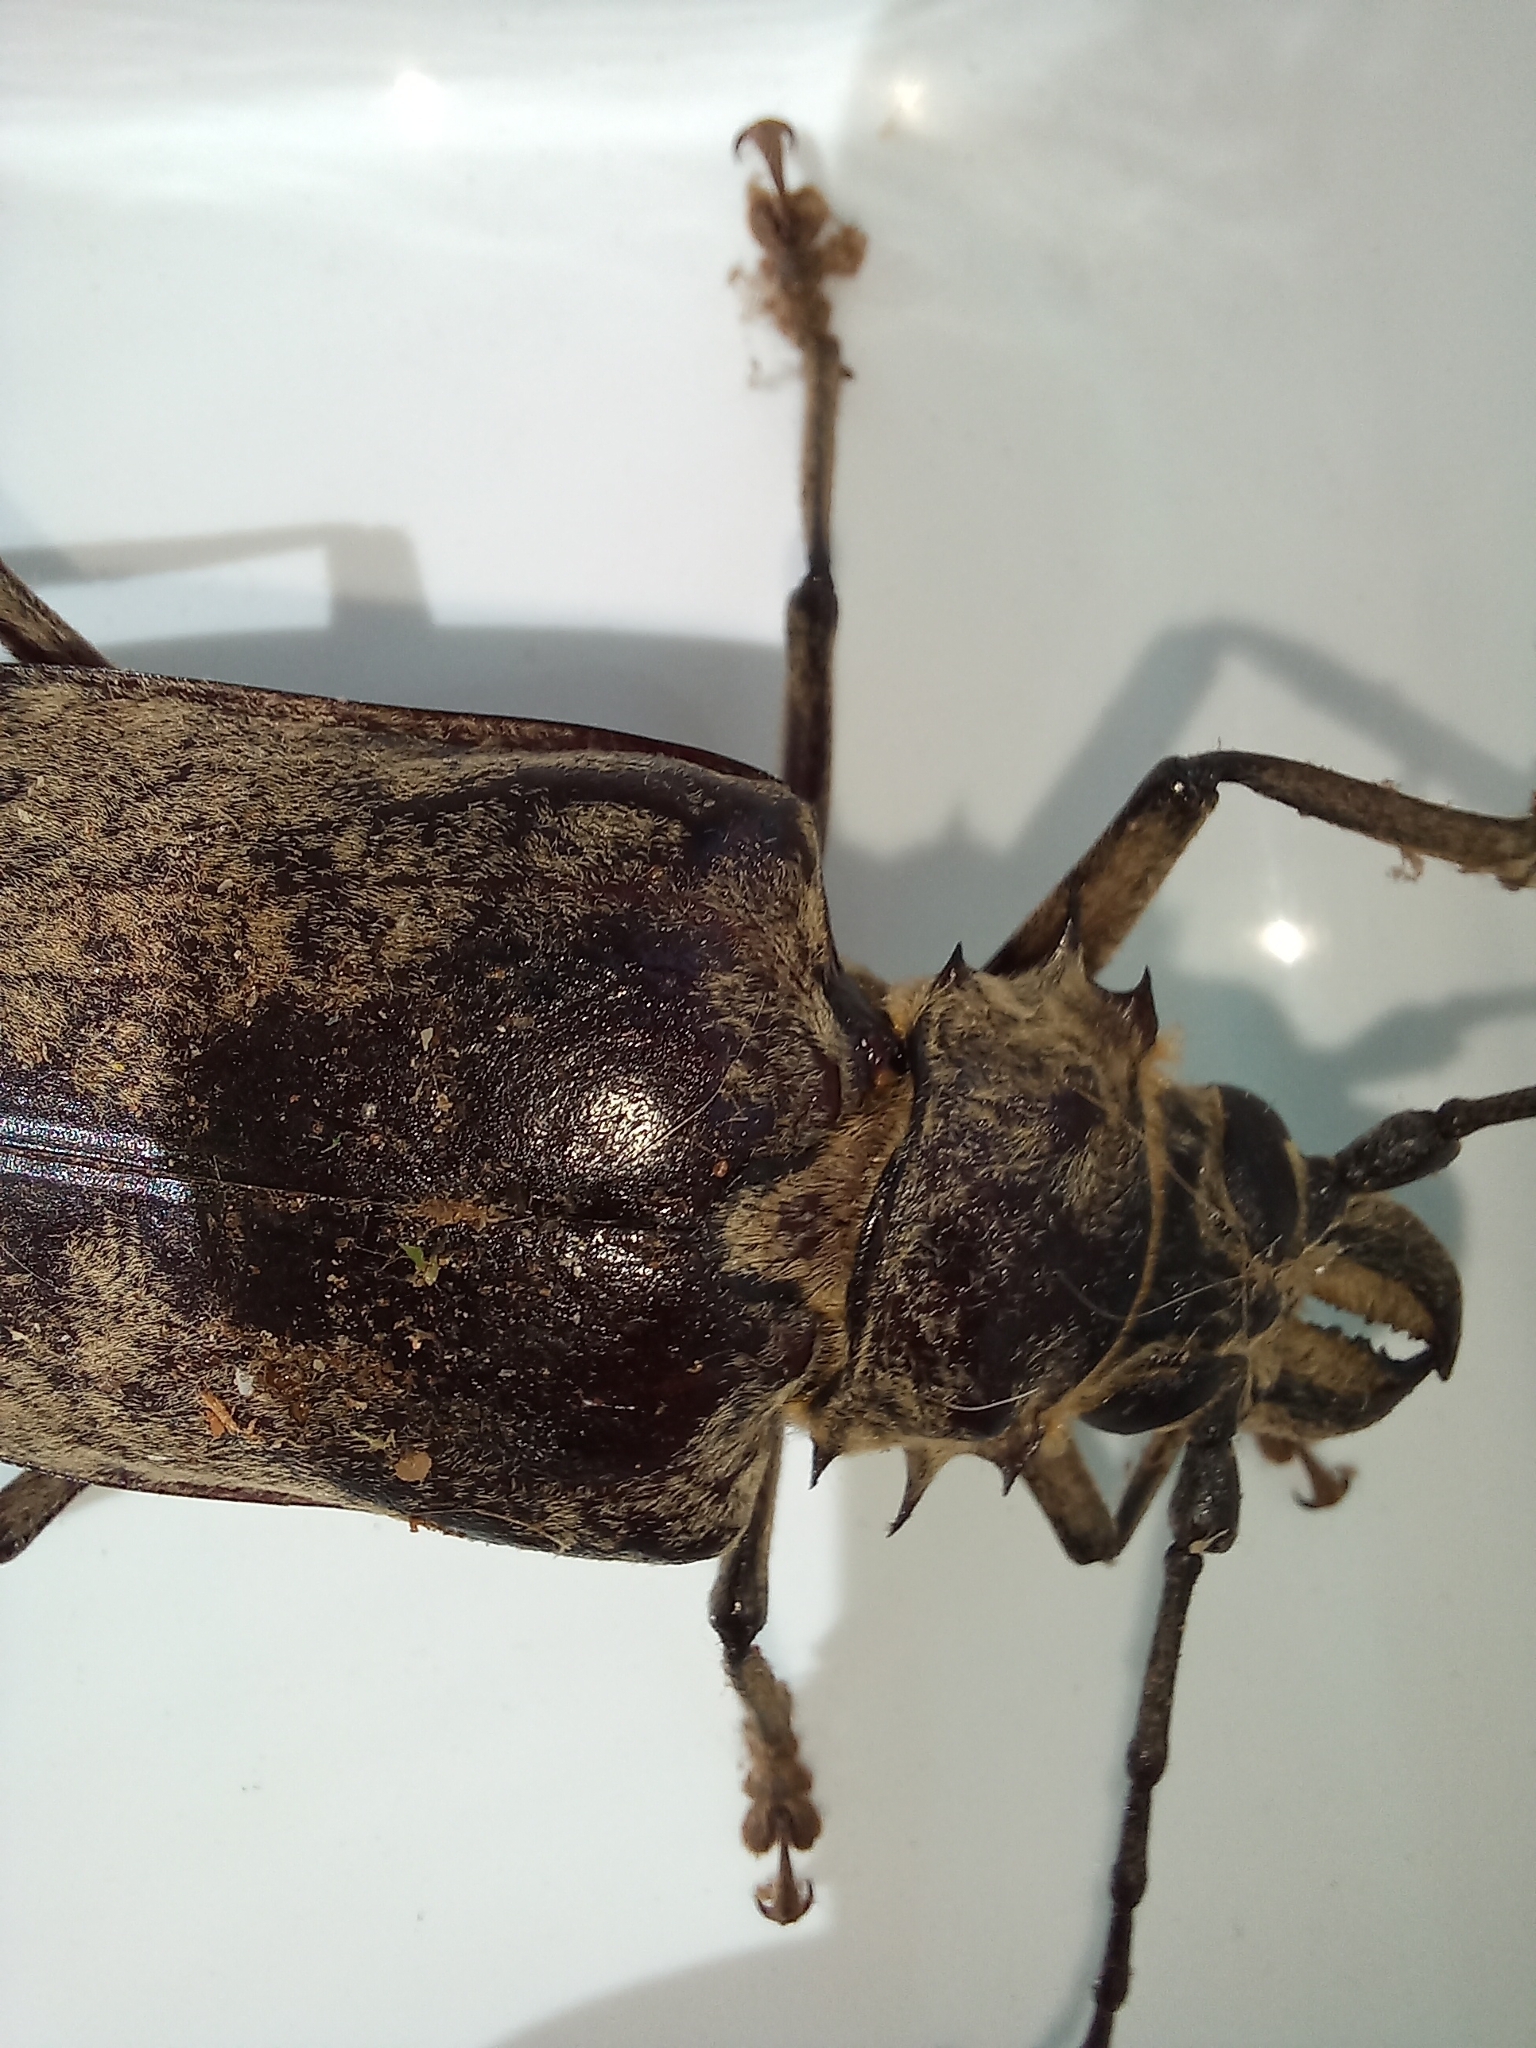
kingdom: Animalia
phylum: Arthropoda
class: Insecta
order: Coleoptera
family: Cerambycidae
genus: Tithoes
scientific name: Tithoes confinis
